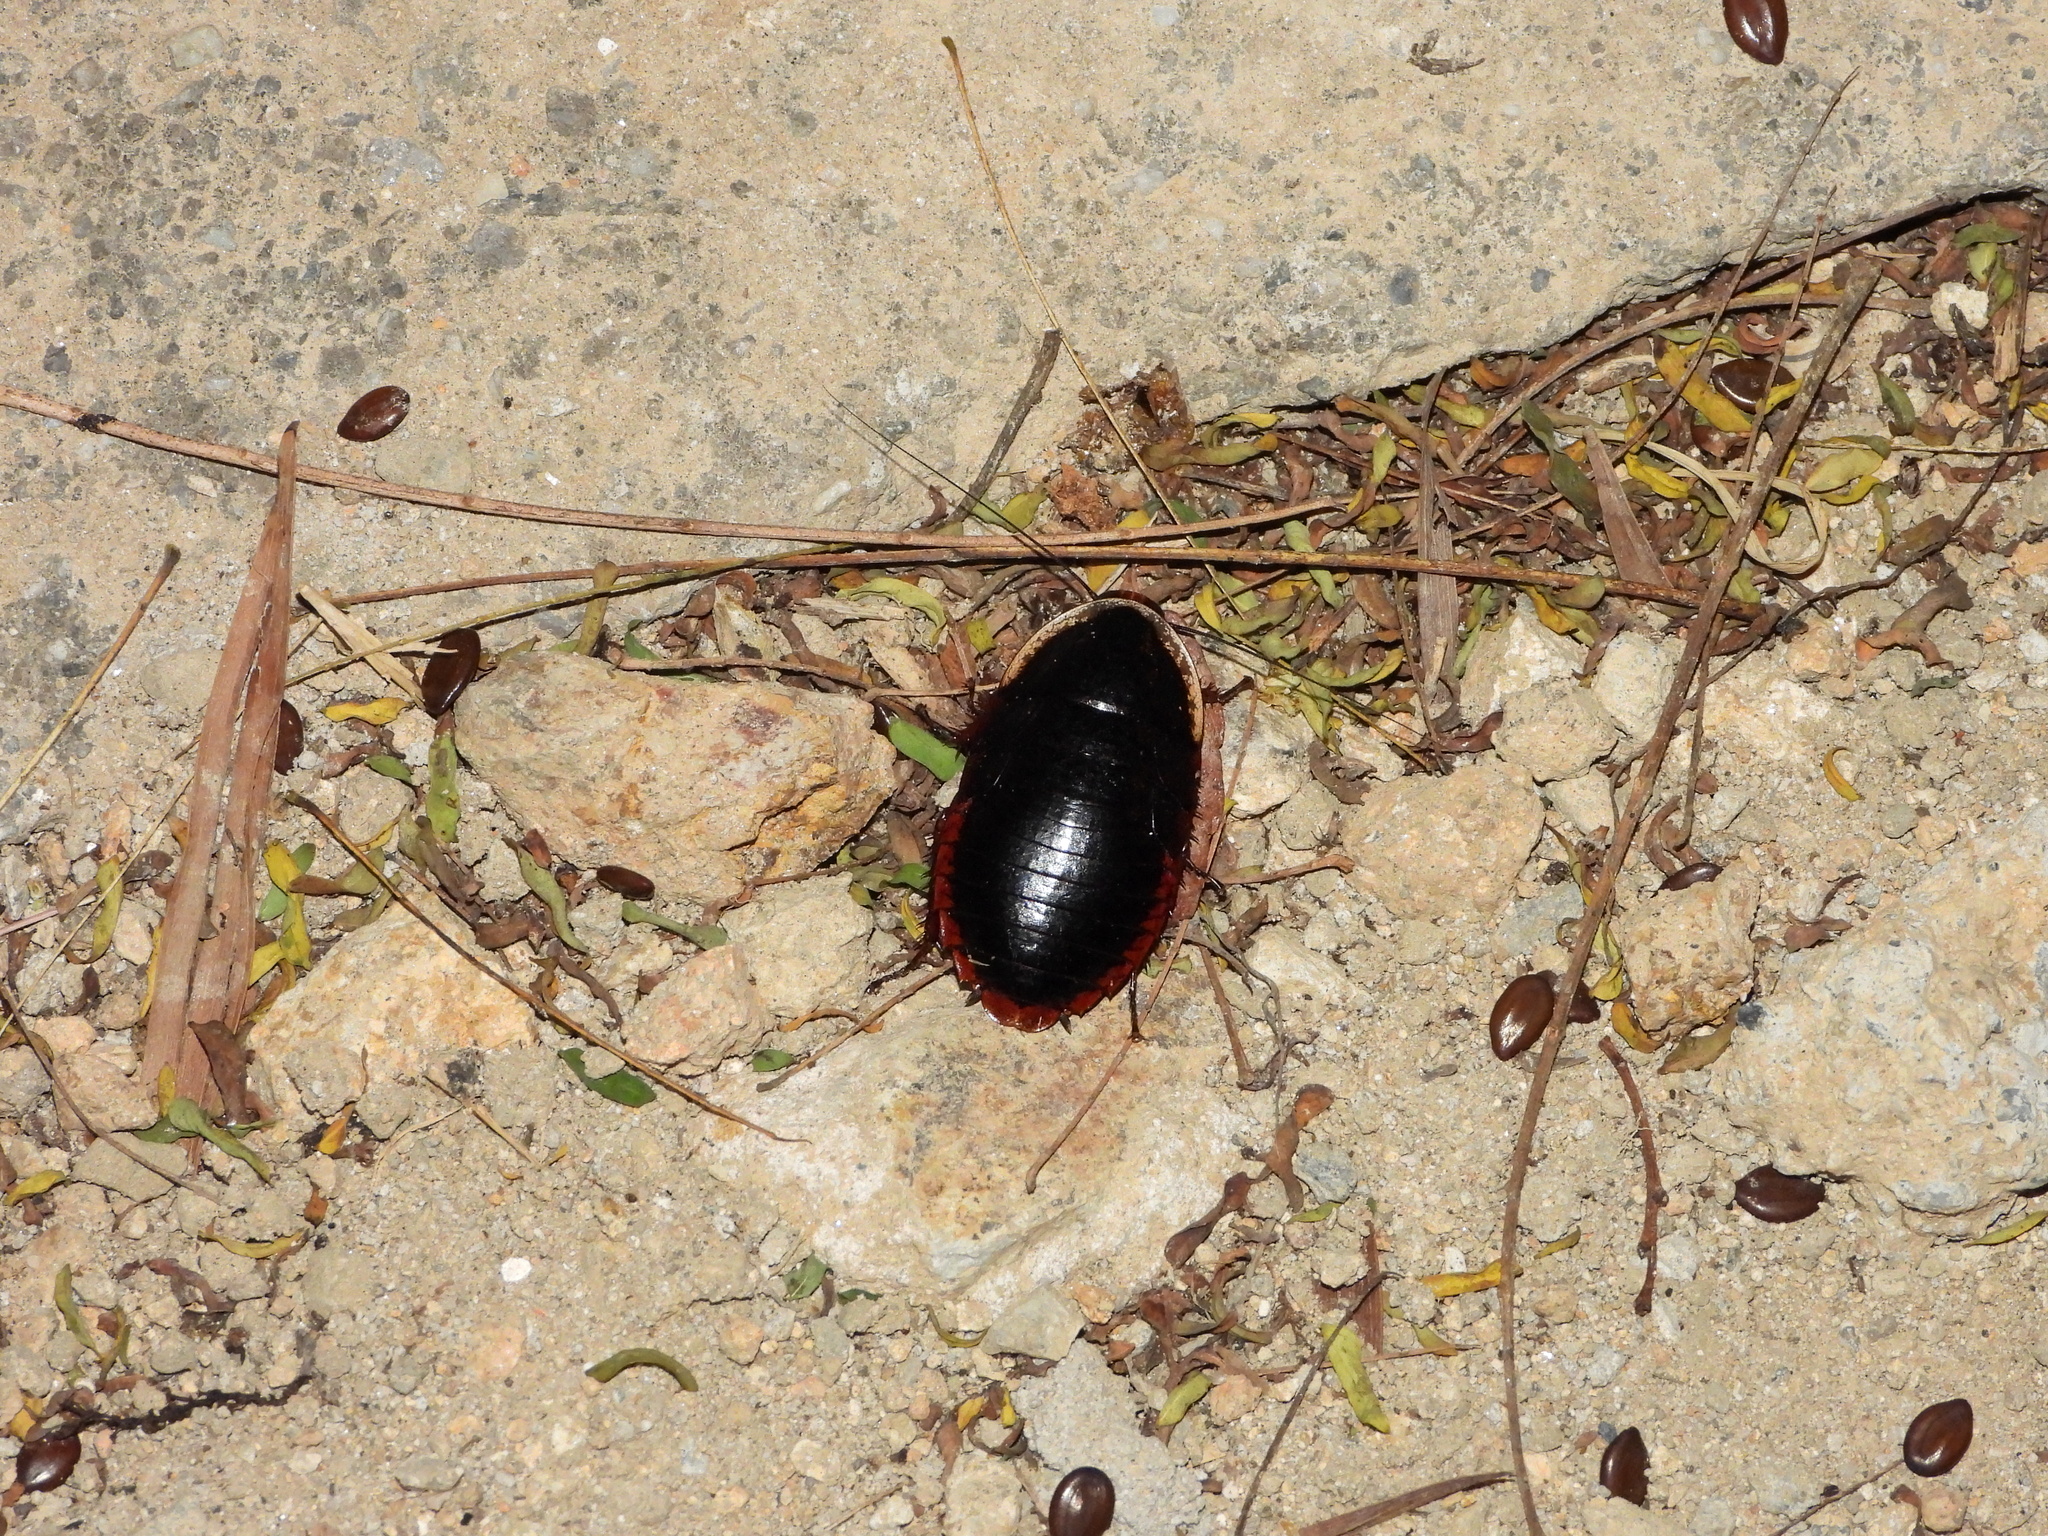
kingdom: Animalia
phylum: Arthropoda
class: Insecta
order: Blattodea
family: Blaberidae
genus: Opisthoplatia
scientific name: Opisthoplatia orientalis
